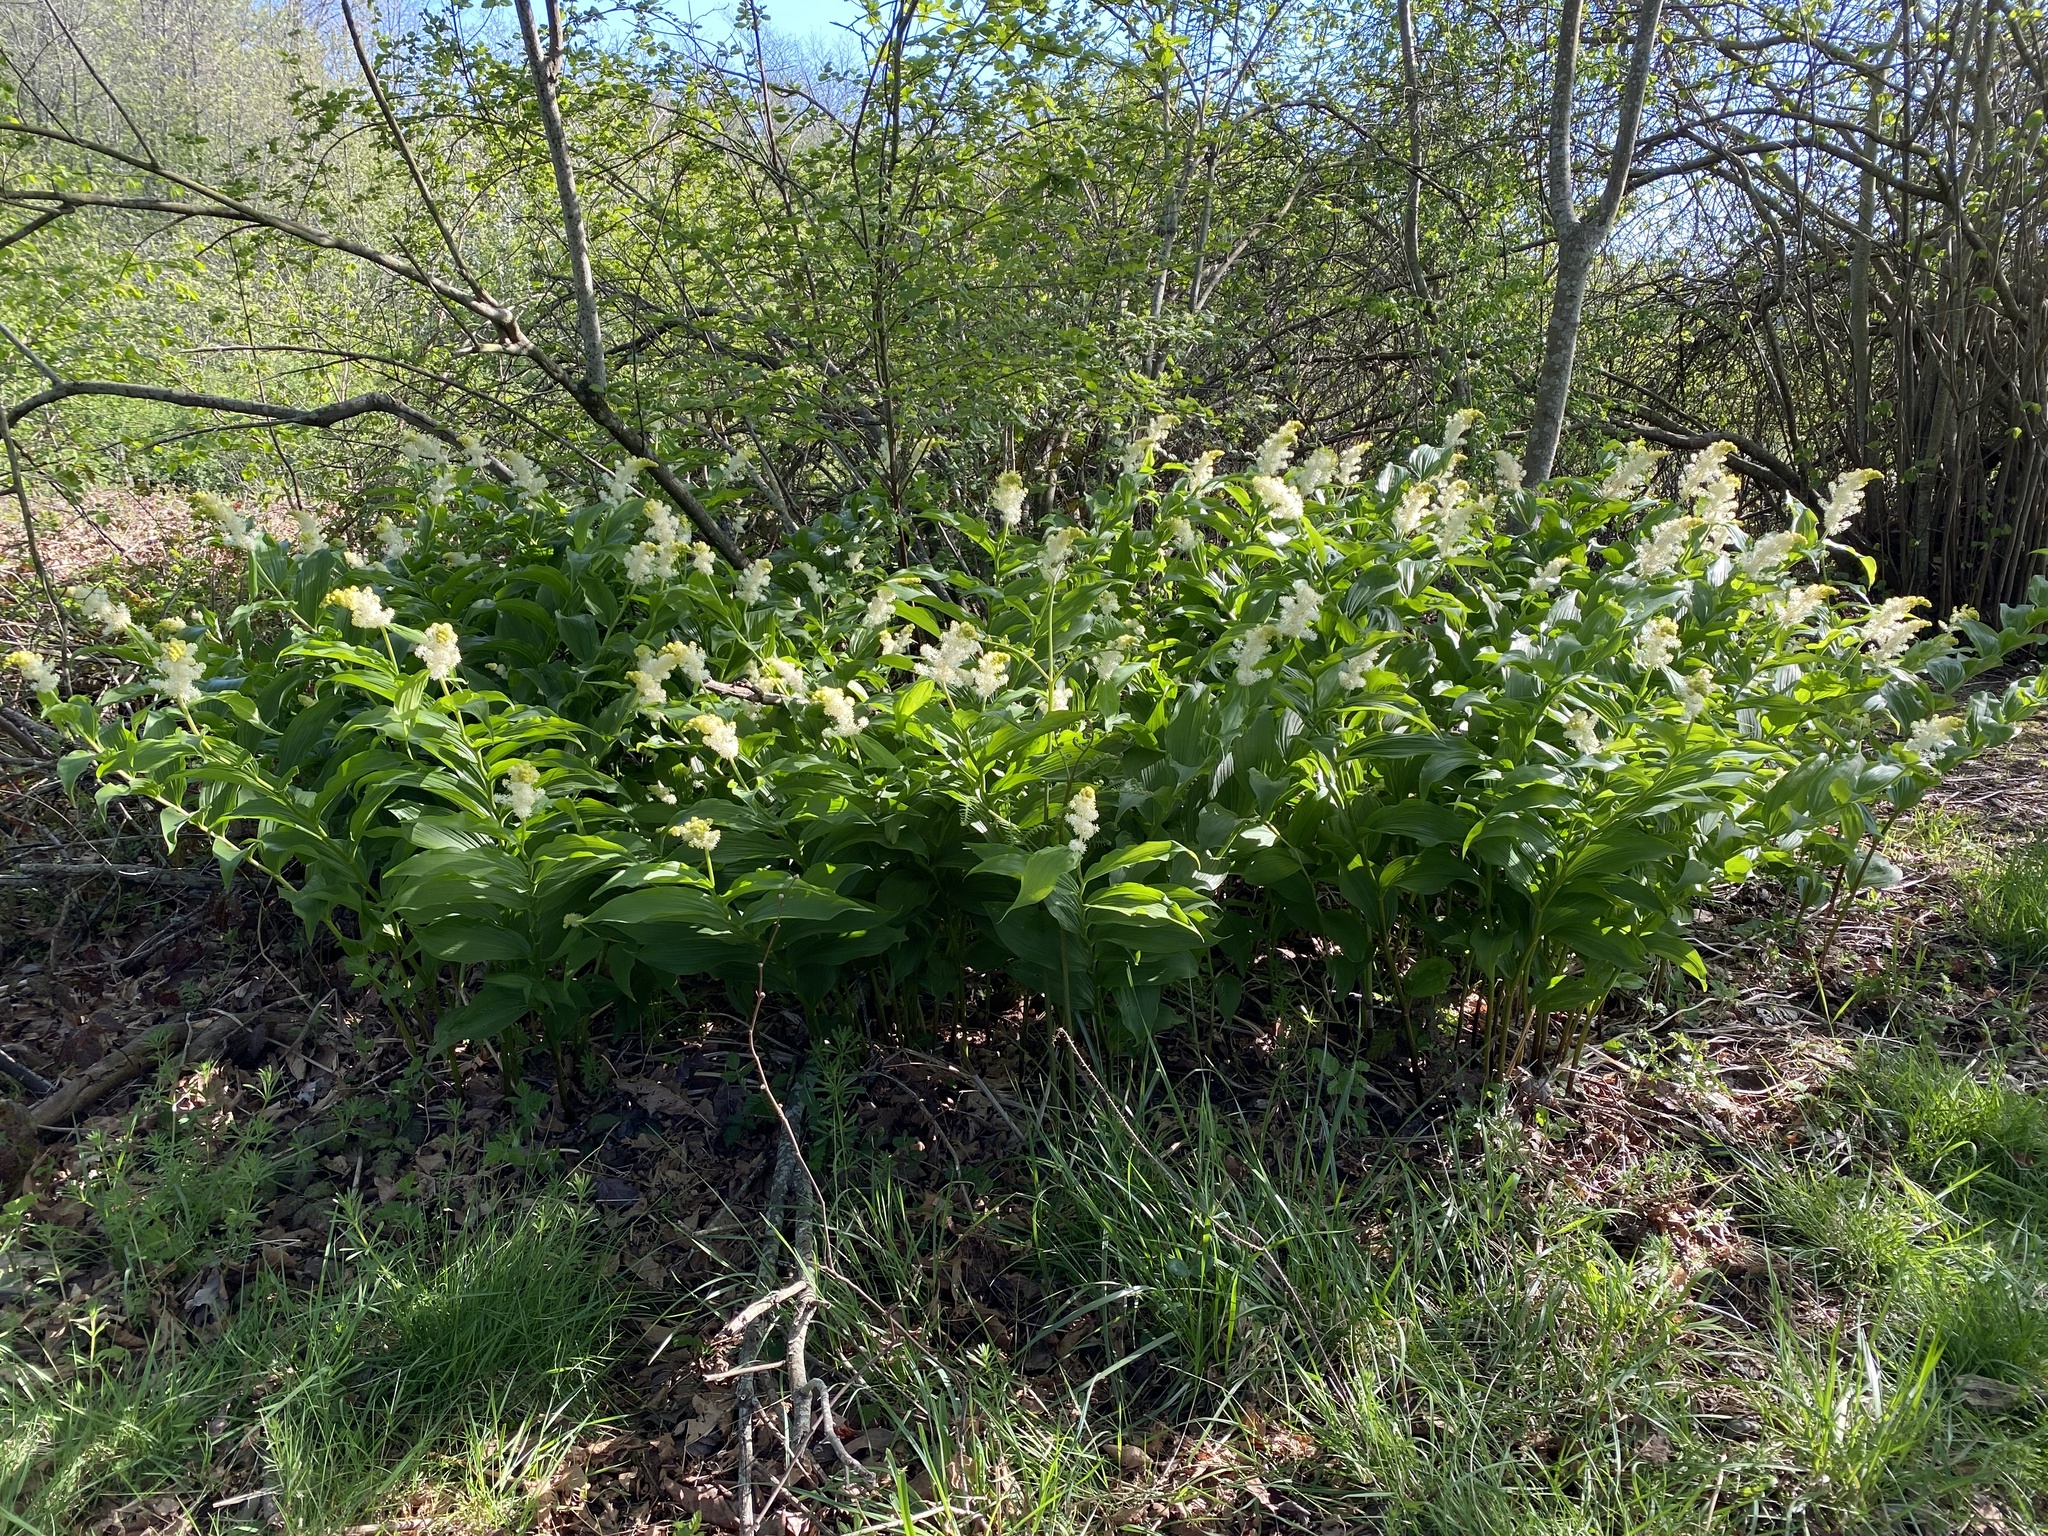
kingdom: Plantae
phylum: Tracheophyta
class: Liliopsida
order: Asparagales
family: Asparagaceae
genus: Maianthemum
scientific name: Maianthemum racemosum
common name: False spikenard
